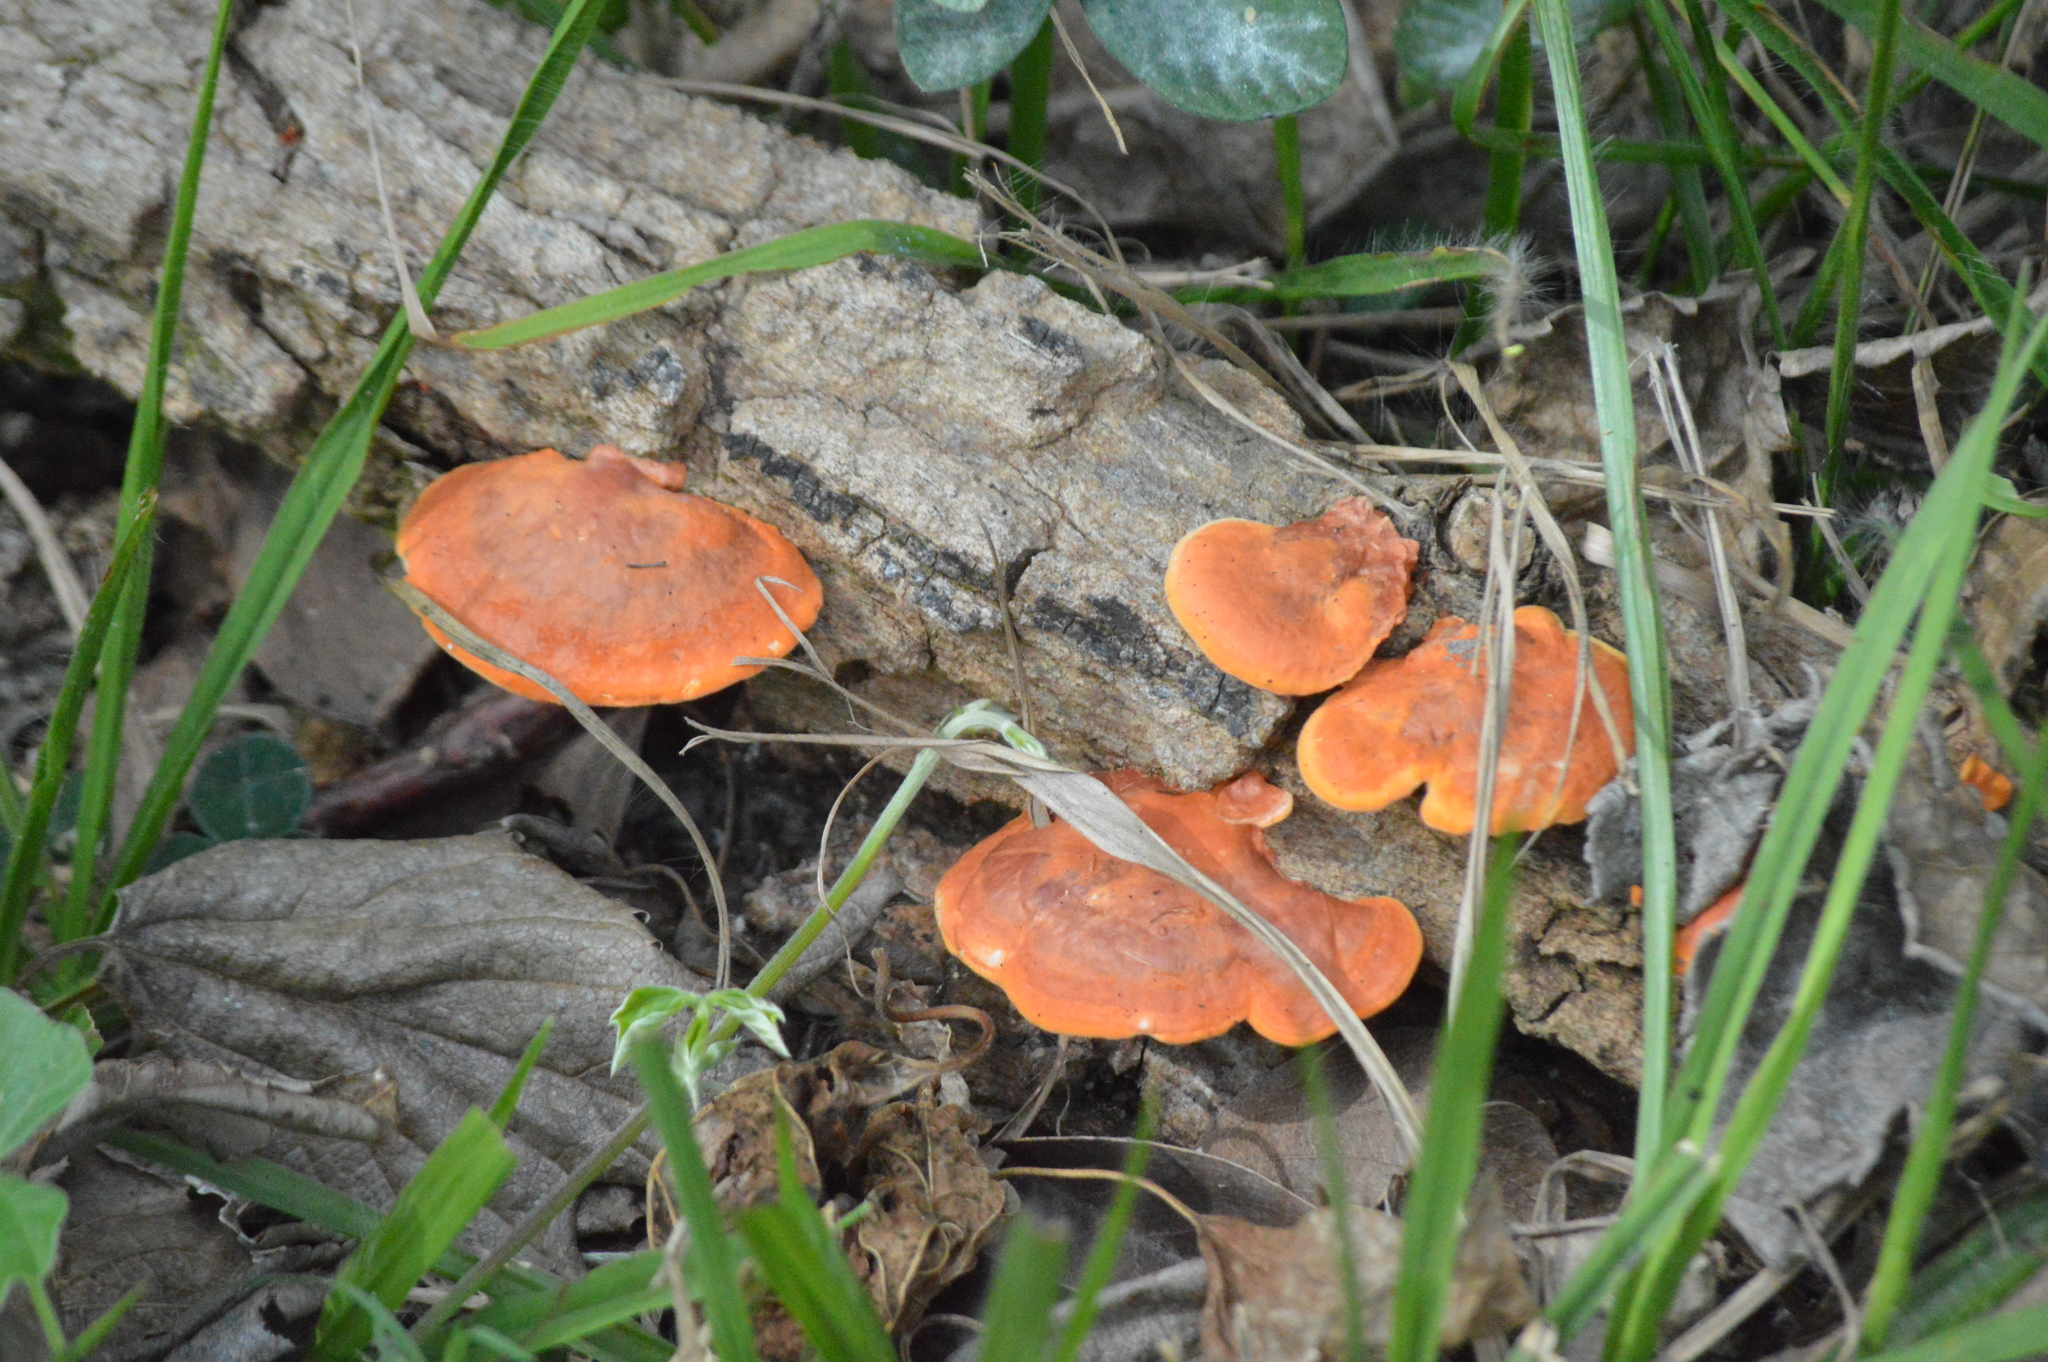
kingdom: Fungi
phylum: Basidiomycota
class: Agaricomycetes
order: Polyporales
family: Polyporaceae
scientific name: Polyporaceae
